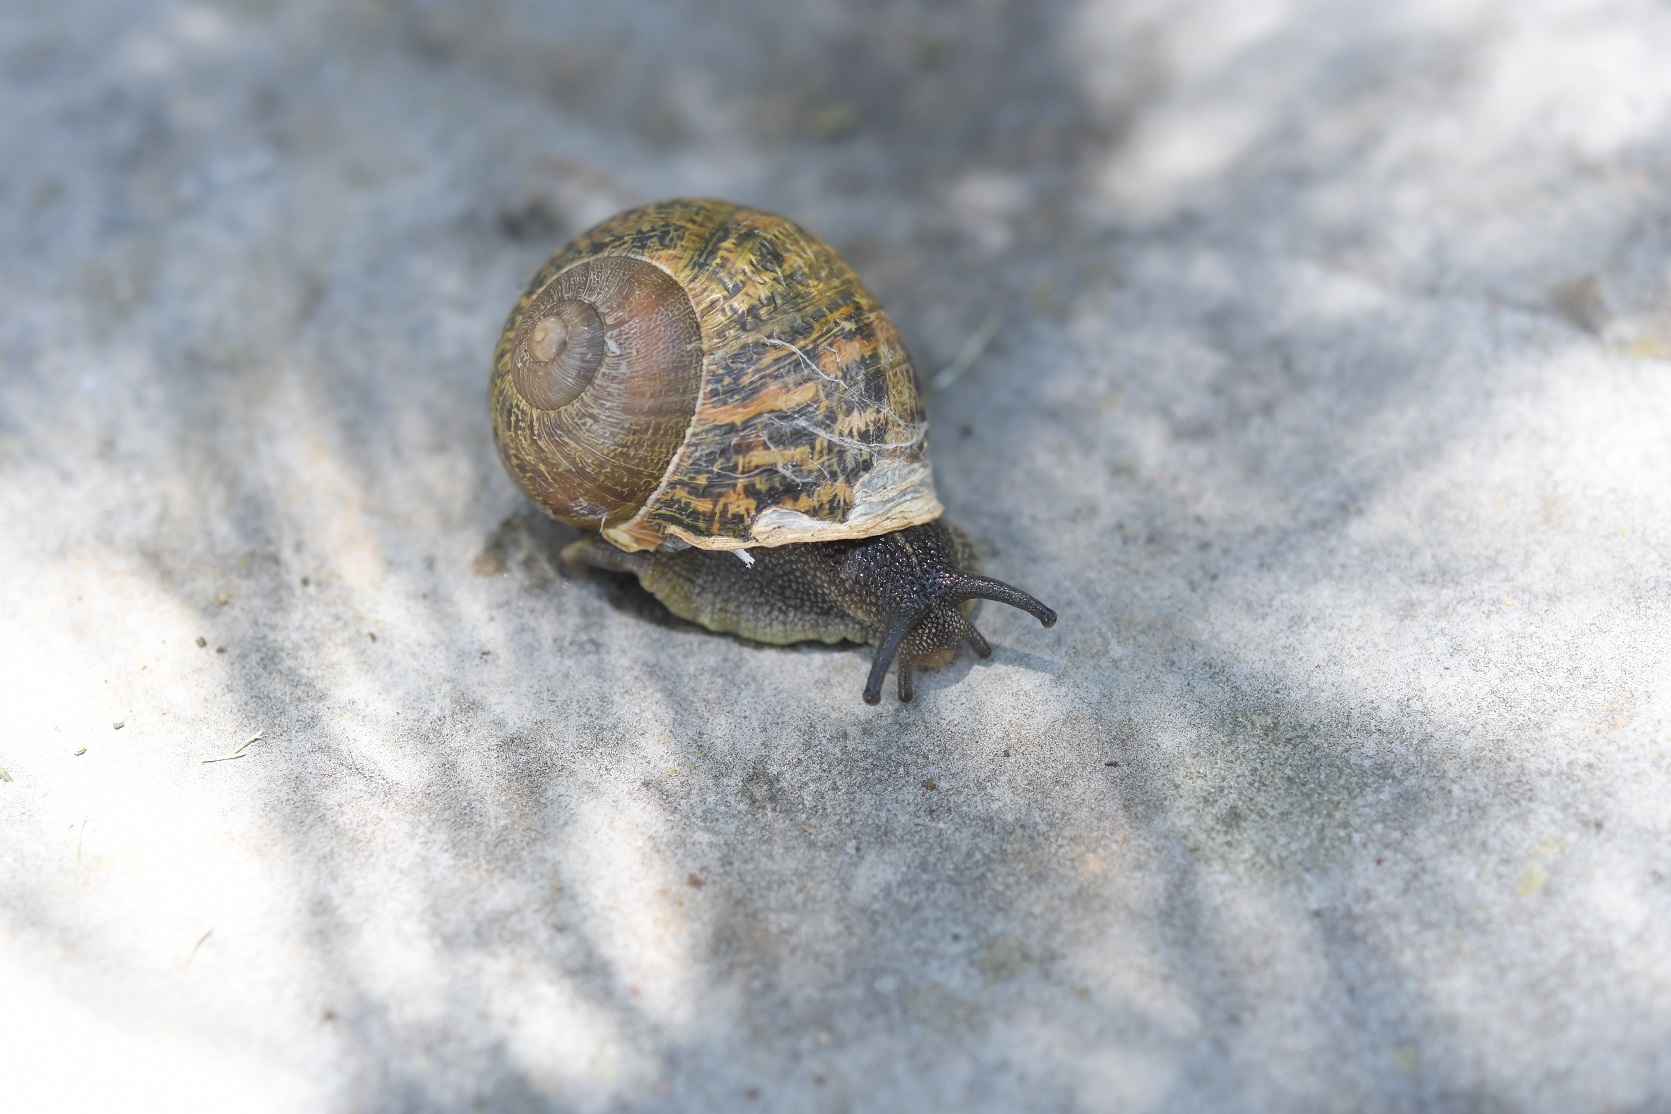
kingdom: Animalia
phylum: Mollusca
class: Gastropoda
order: Stylommatophora
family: Helicidae
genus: Cornu
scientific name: Cornu aspersum
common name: Brown garden snail
